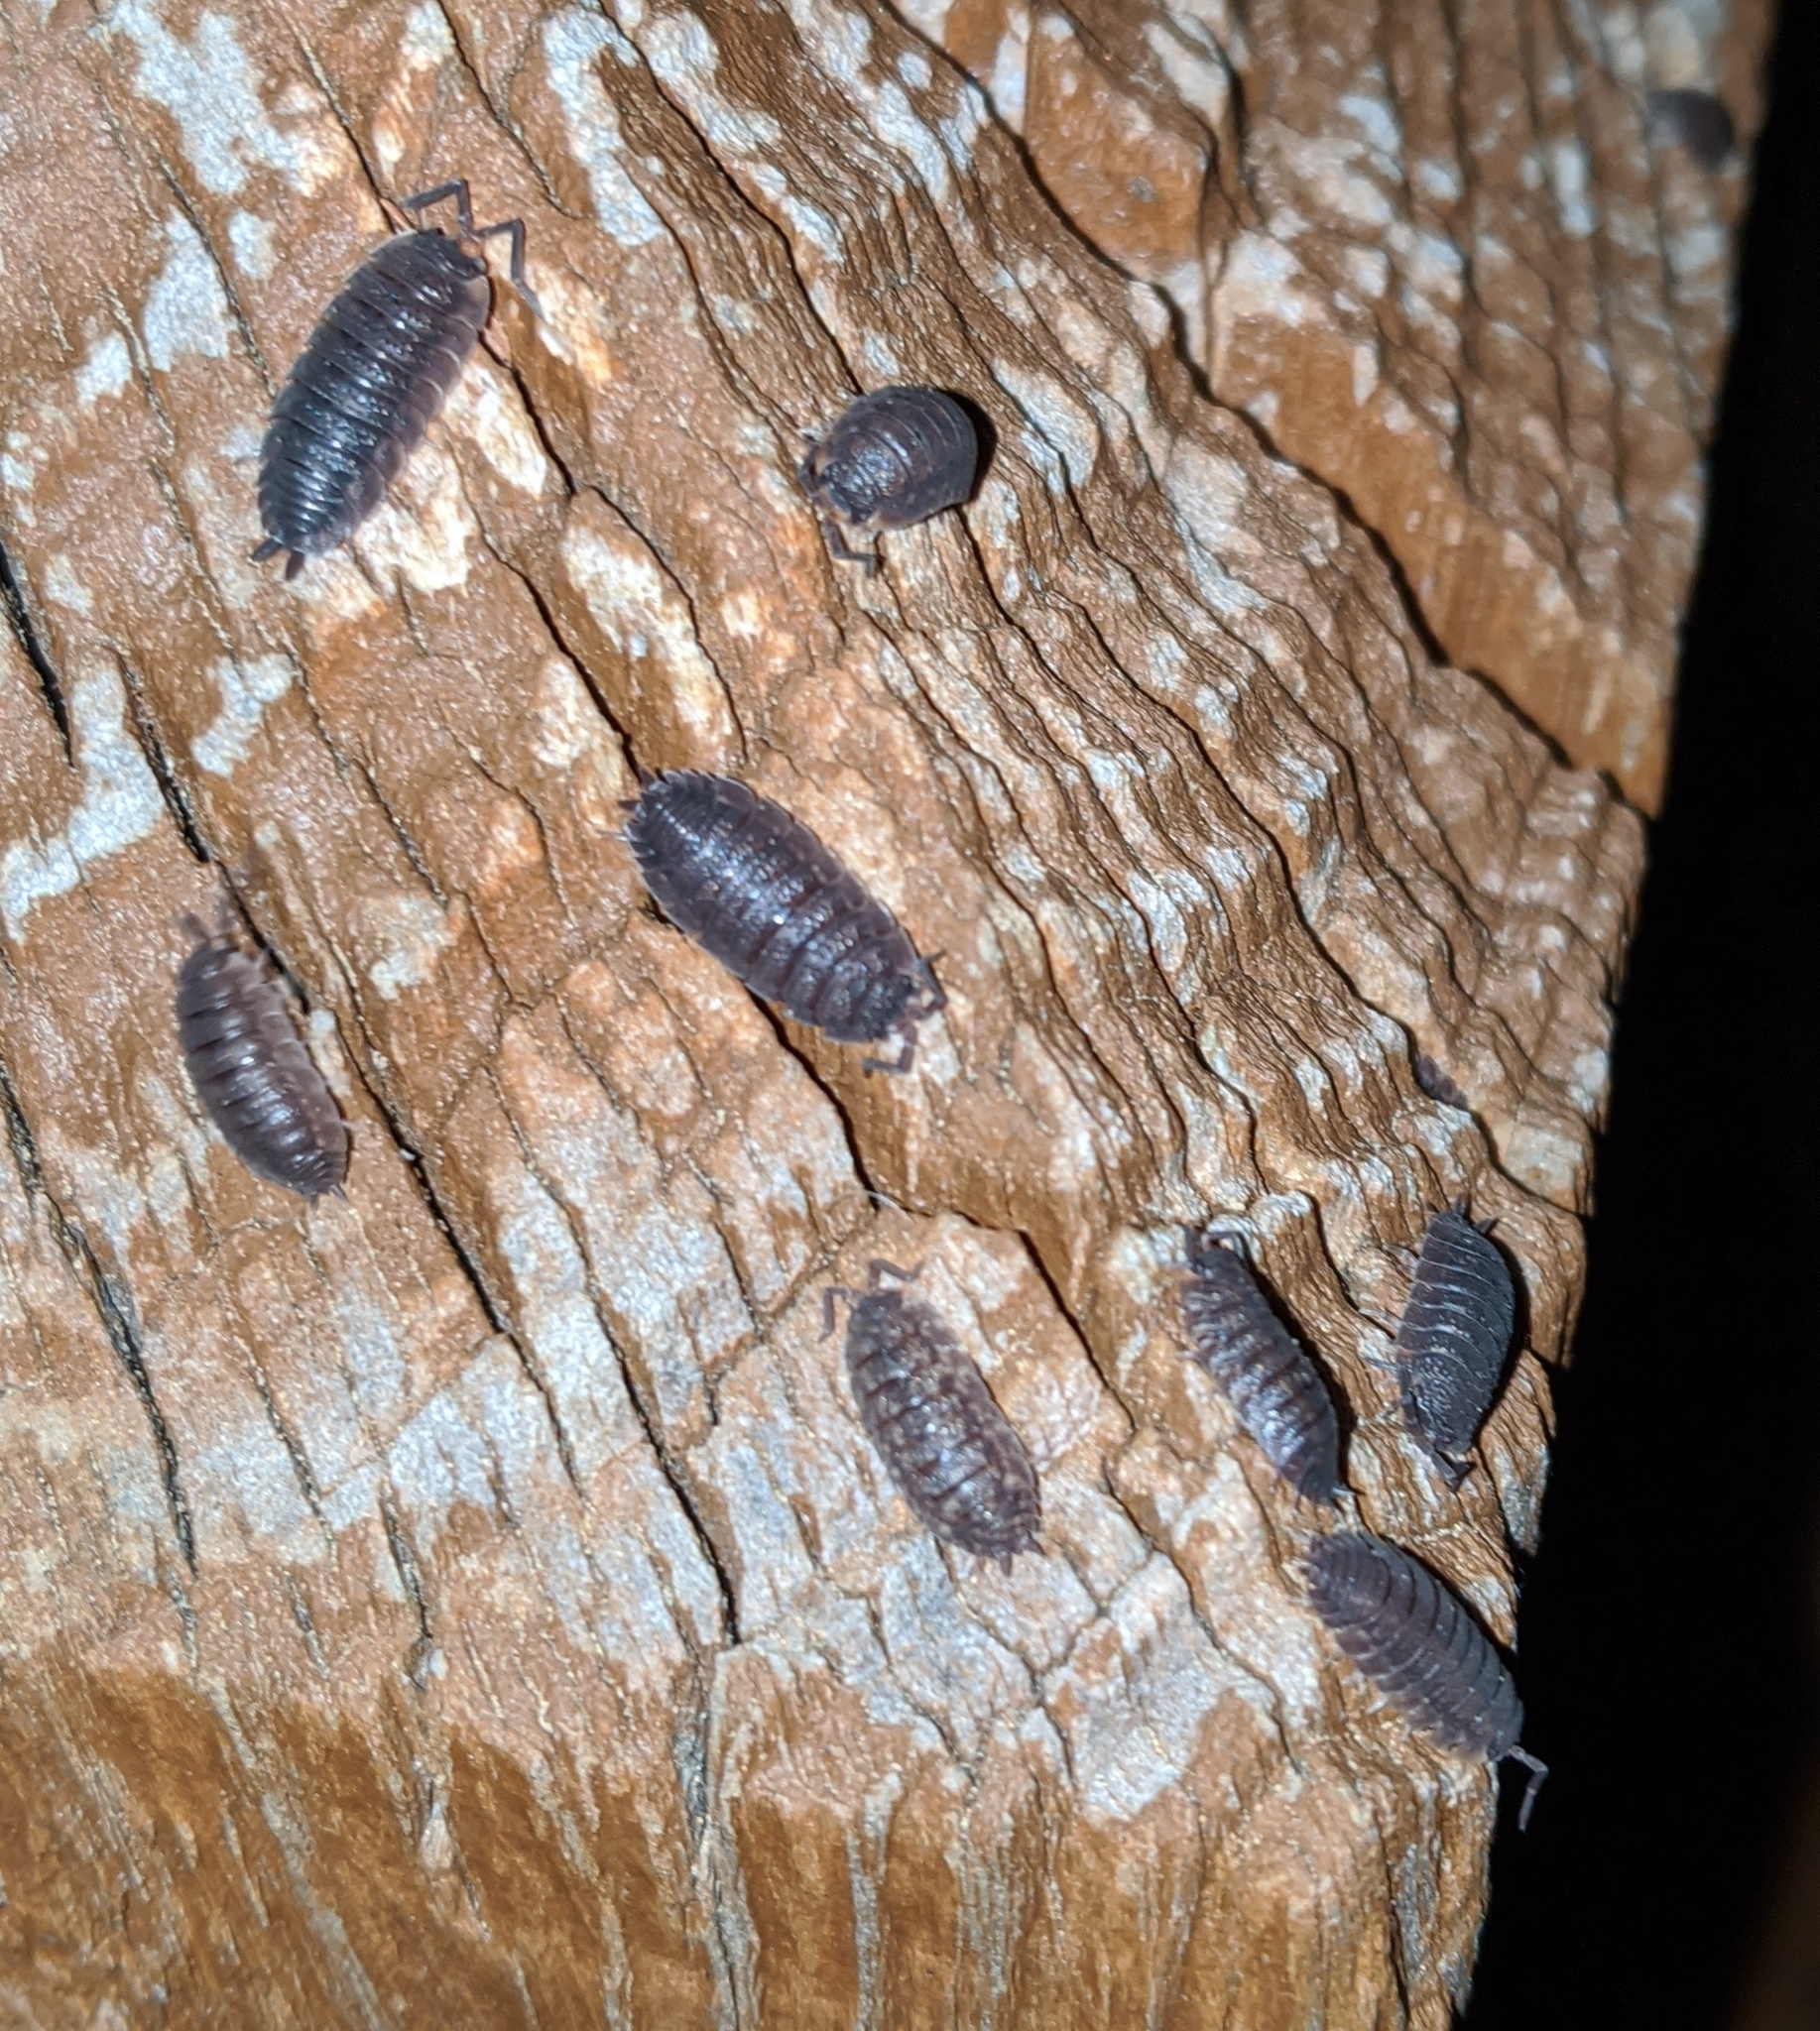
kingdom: Animalia
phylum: Arthropoda
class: Malacostraca
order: Isopoda
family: Porcellionidae
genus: Porcellio
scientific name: Porcellio scaber
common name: Common rough woodlouse
